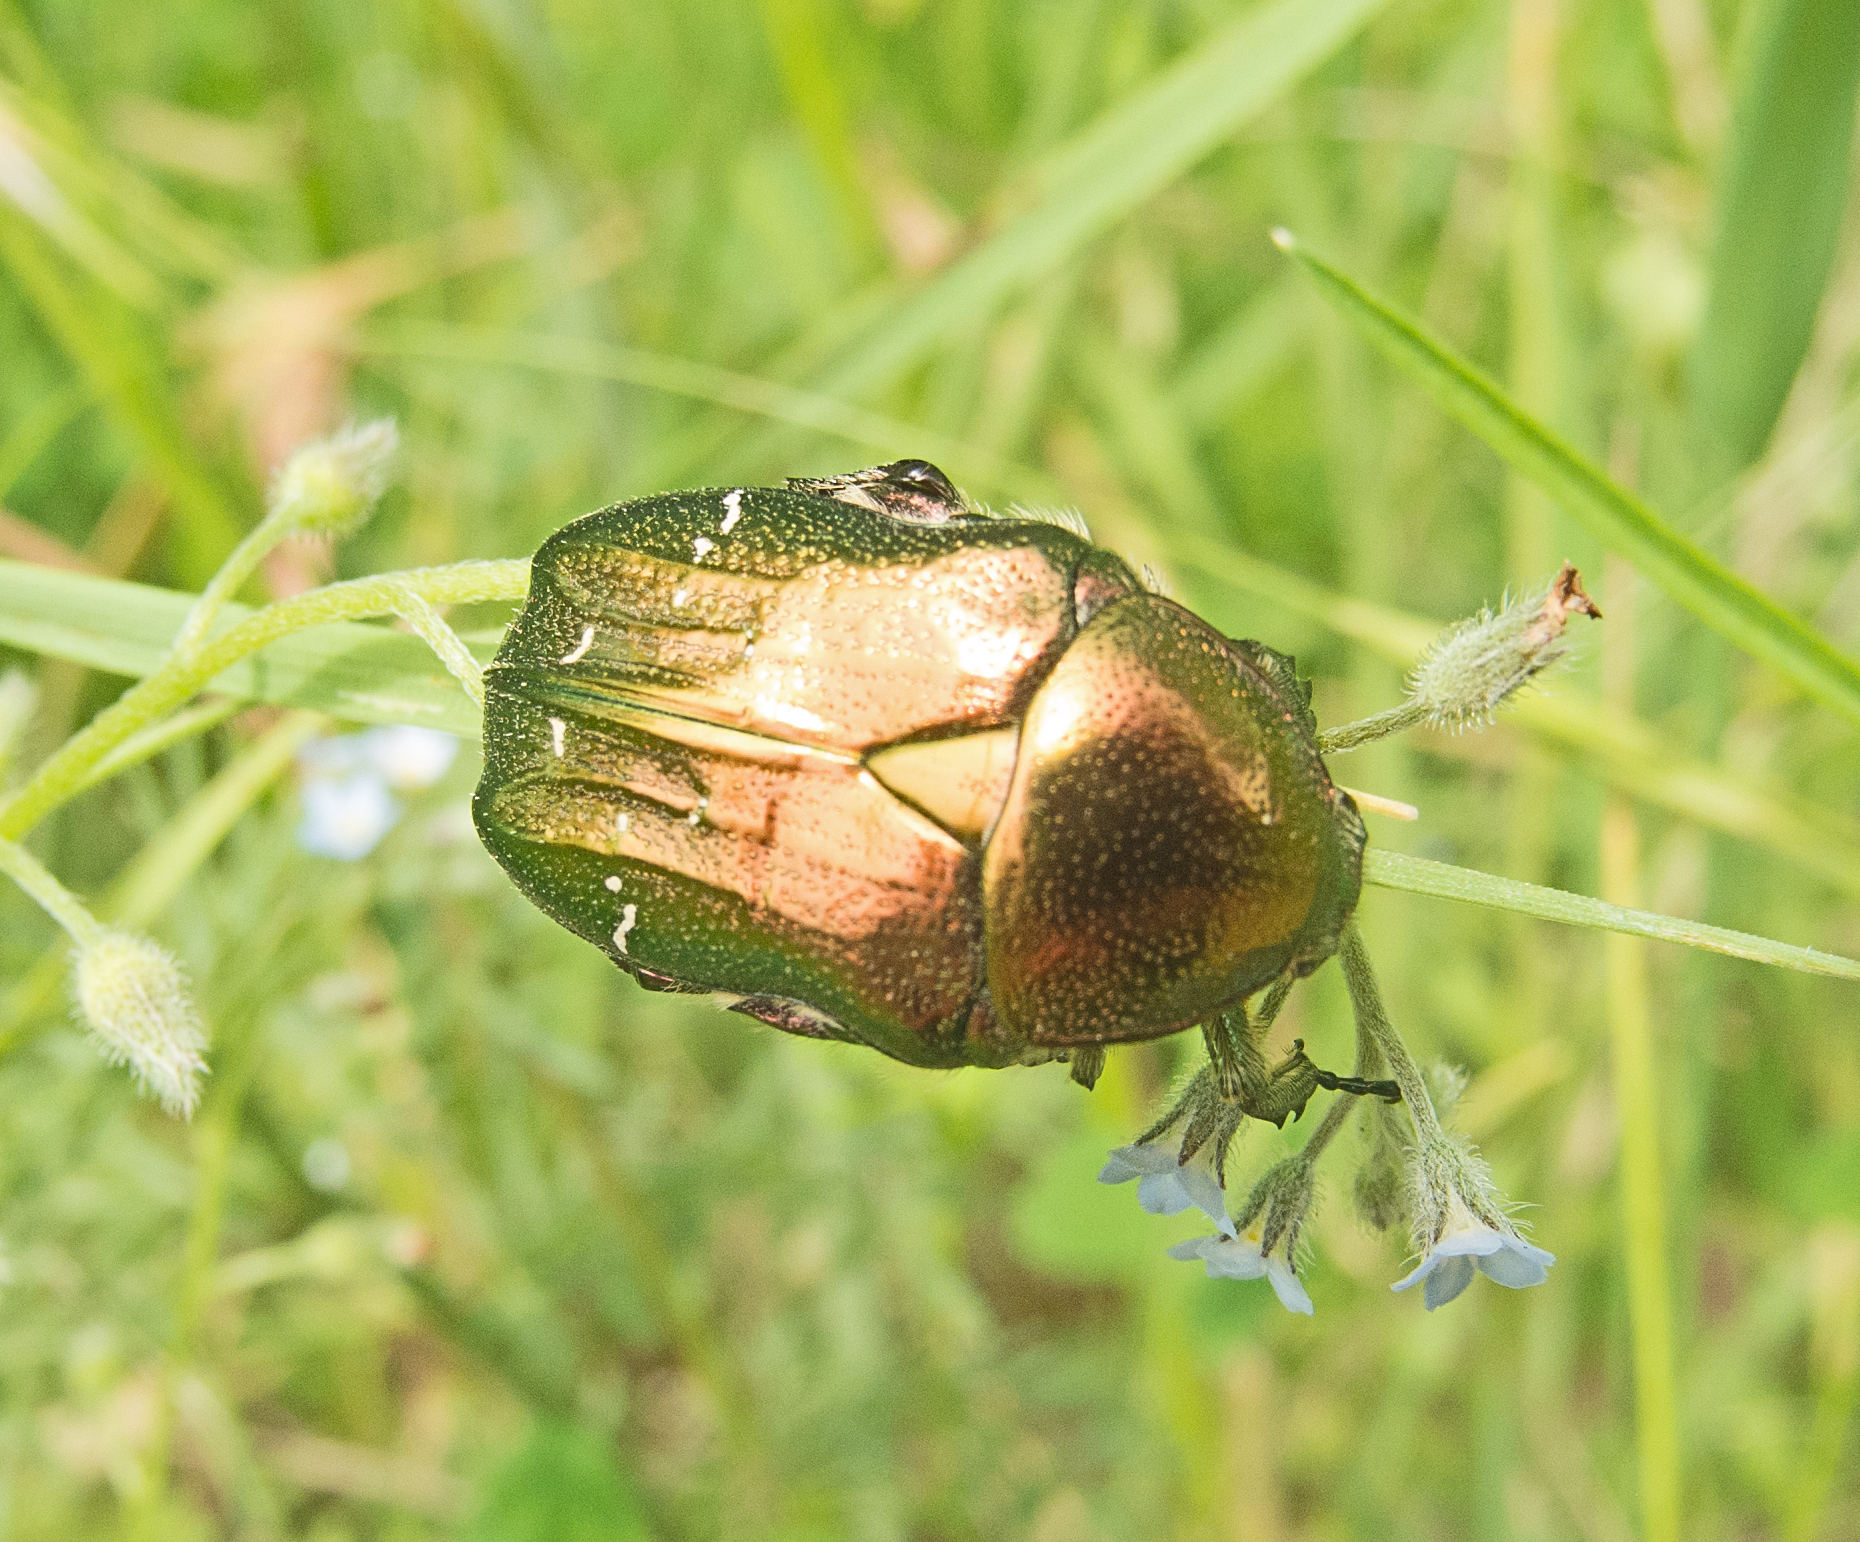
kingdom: Animalia
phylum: Arthropoda
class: Insecta
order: Coleoptera
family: Scarabaeidae
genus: Cetonia
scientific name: Cetonia aurata
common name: Rose chafer
